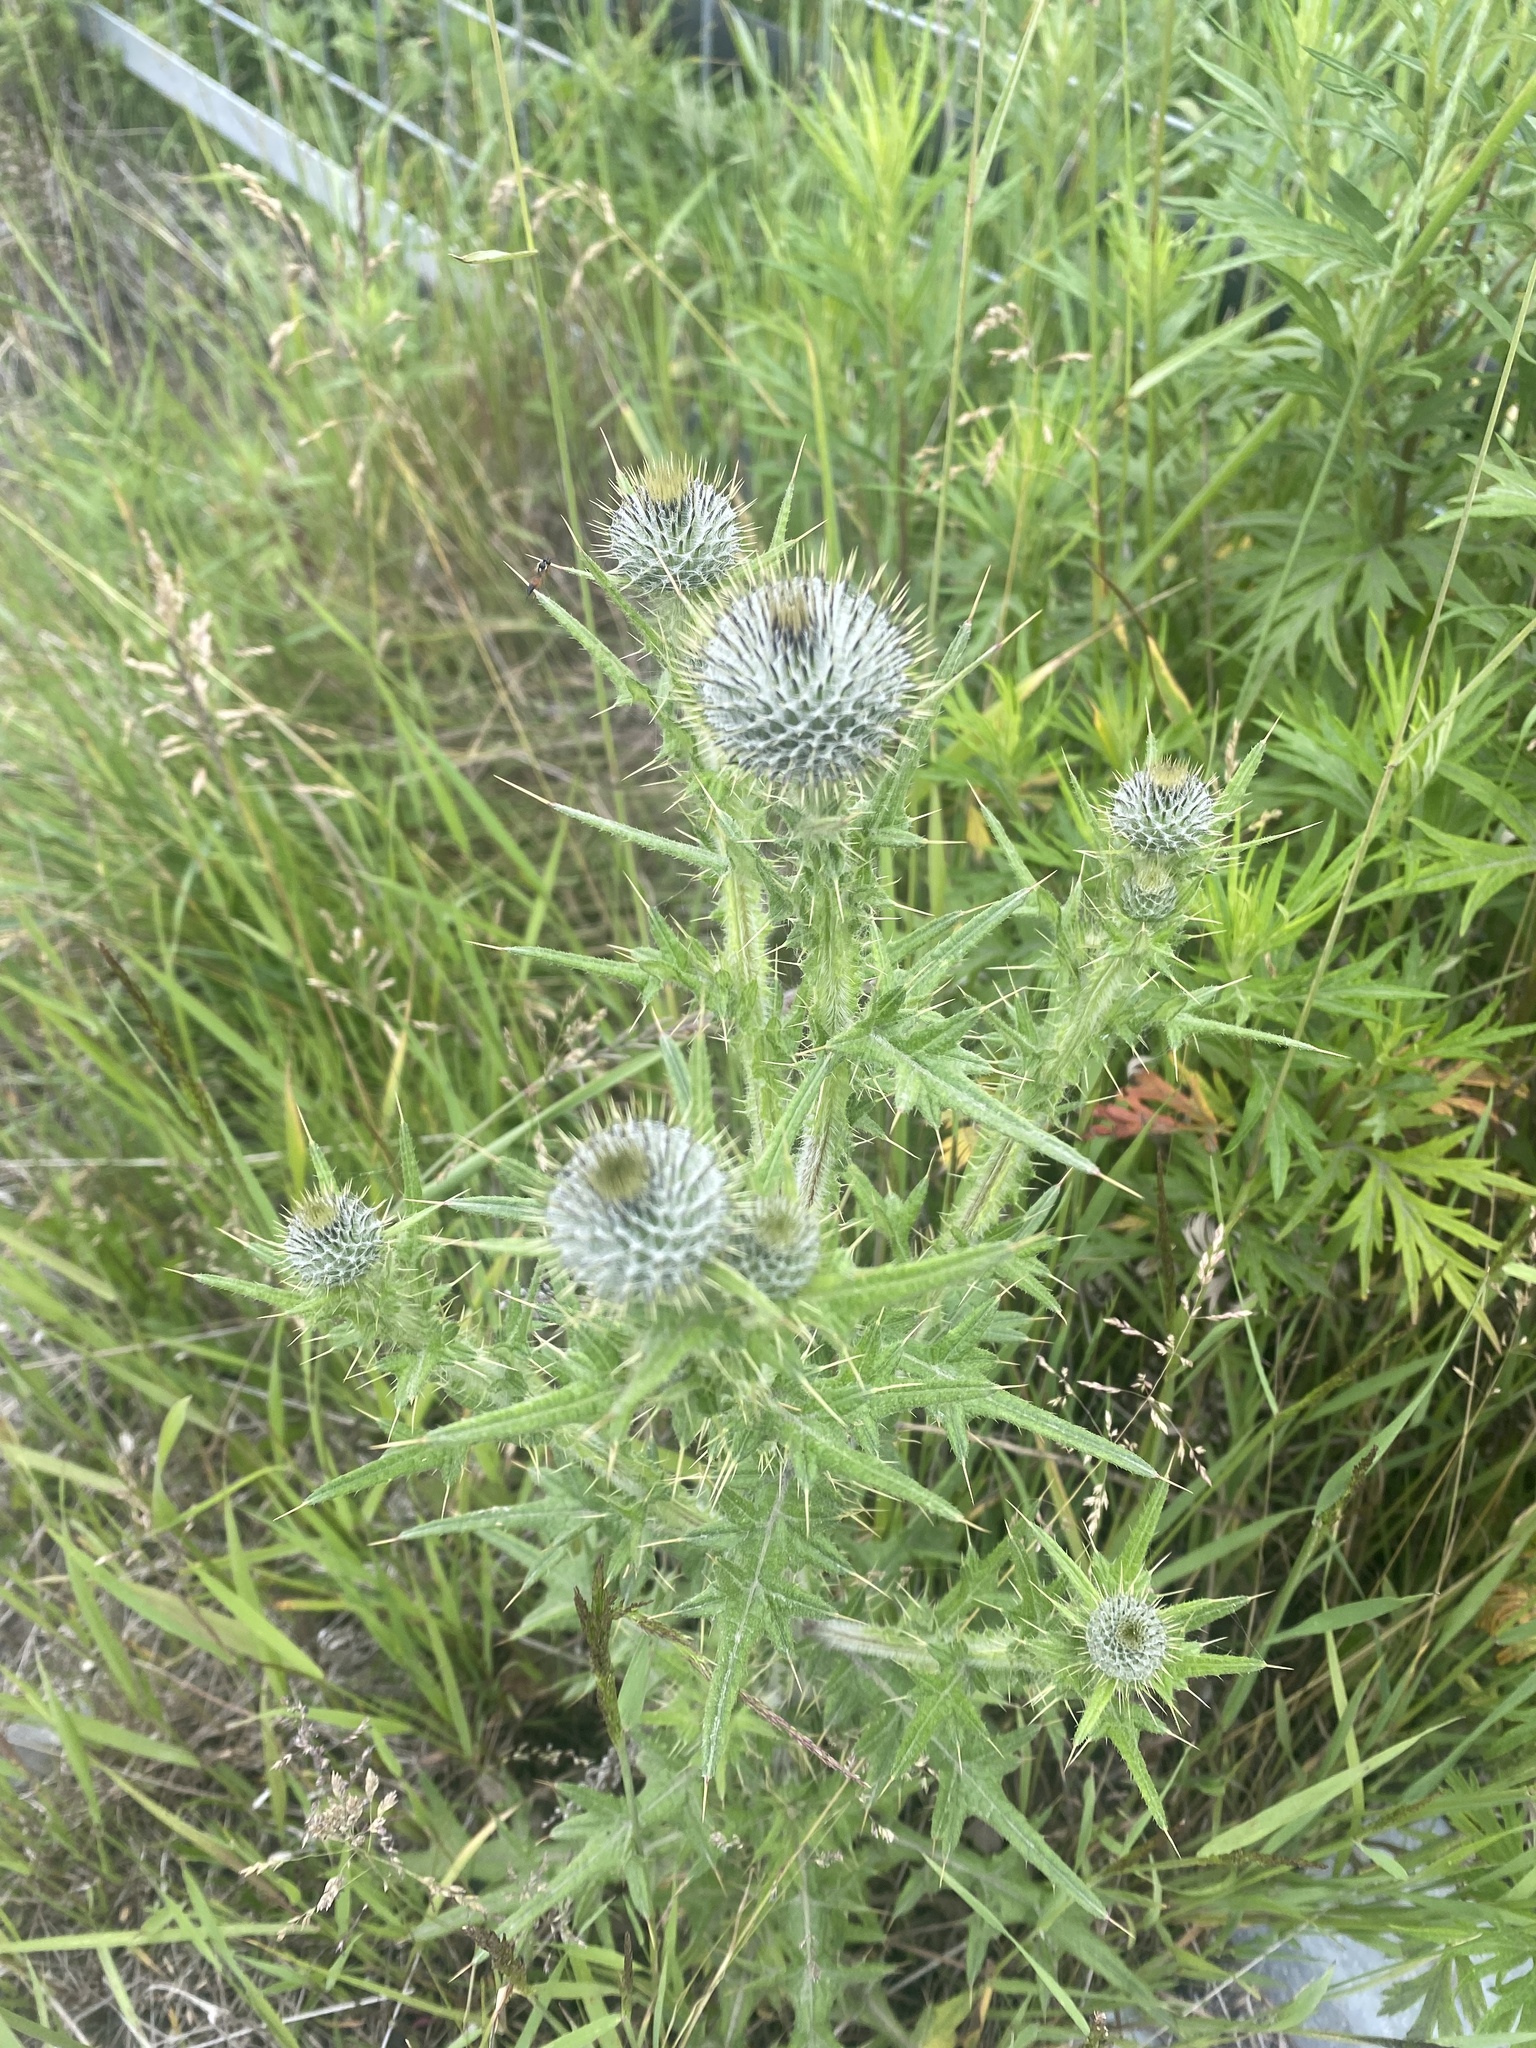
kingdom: Plantae
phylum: Tracheophyta
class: Magnoliopsida
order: Asterales
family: Asteraceae
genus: Cirsium
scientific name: Cirsium vulgare
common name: Bull thistle
